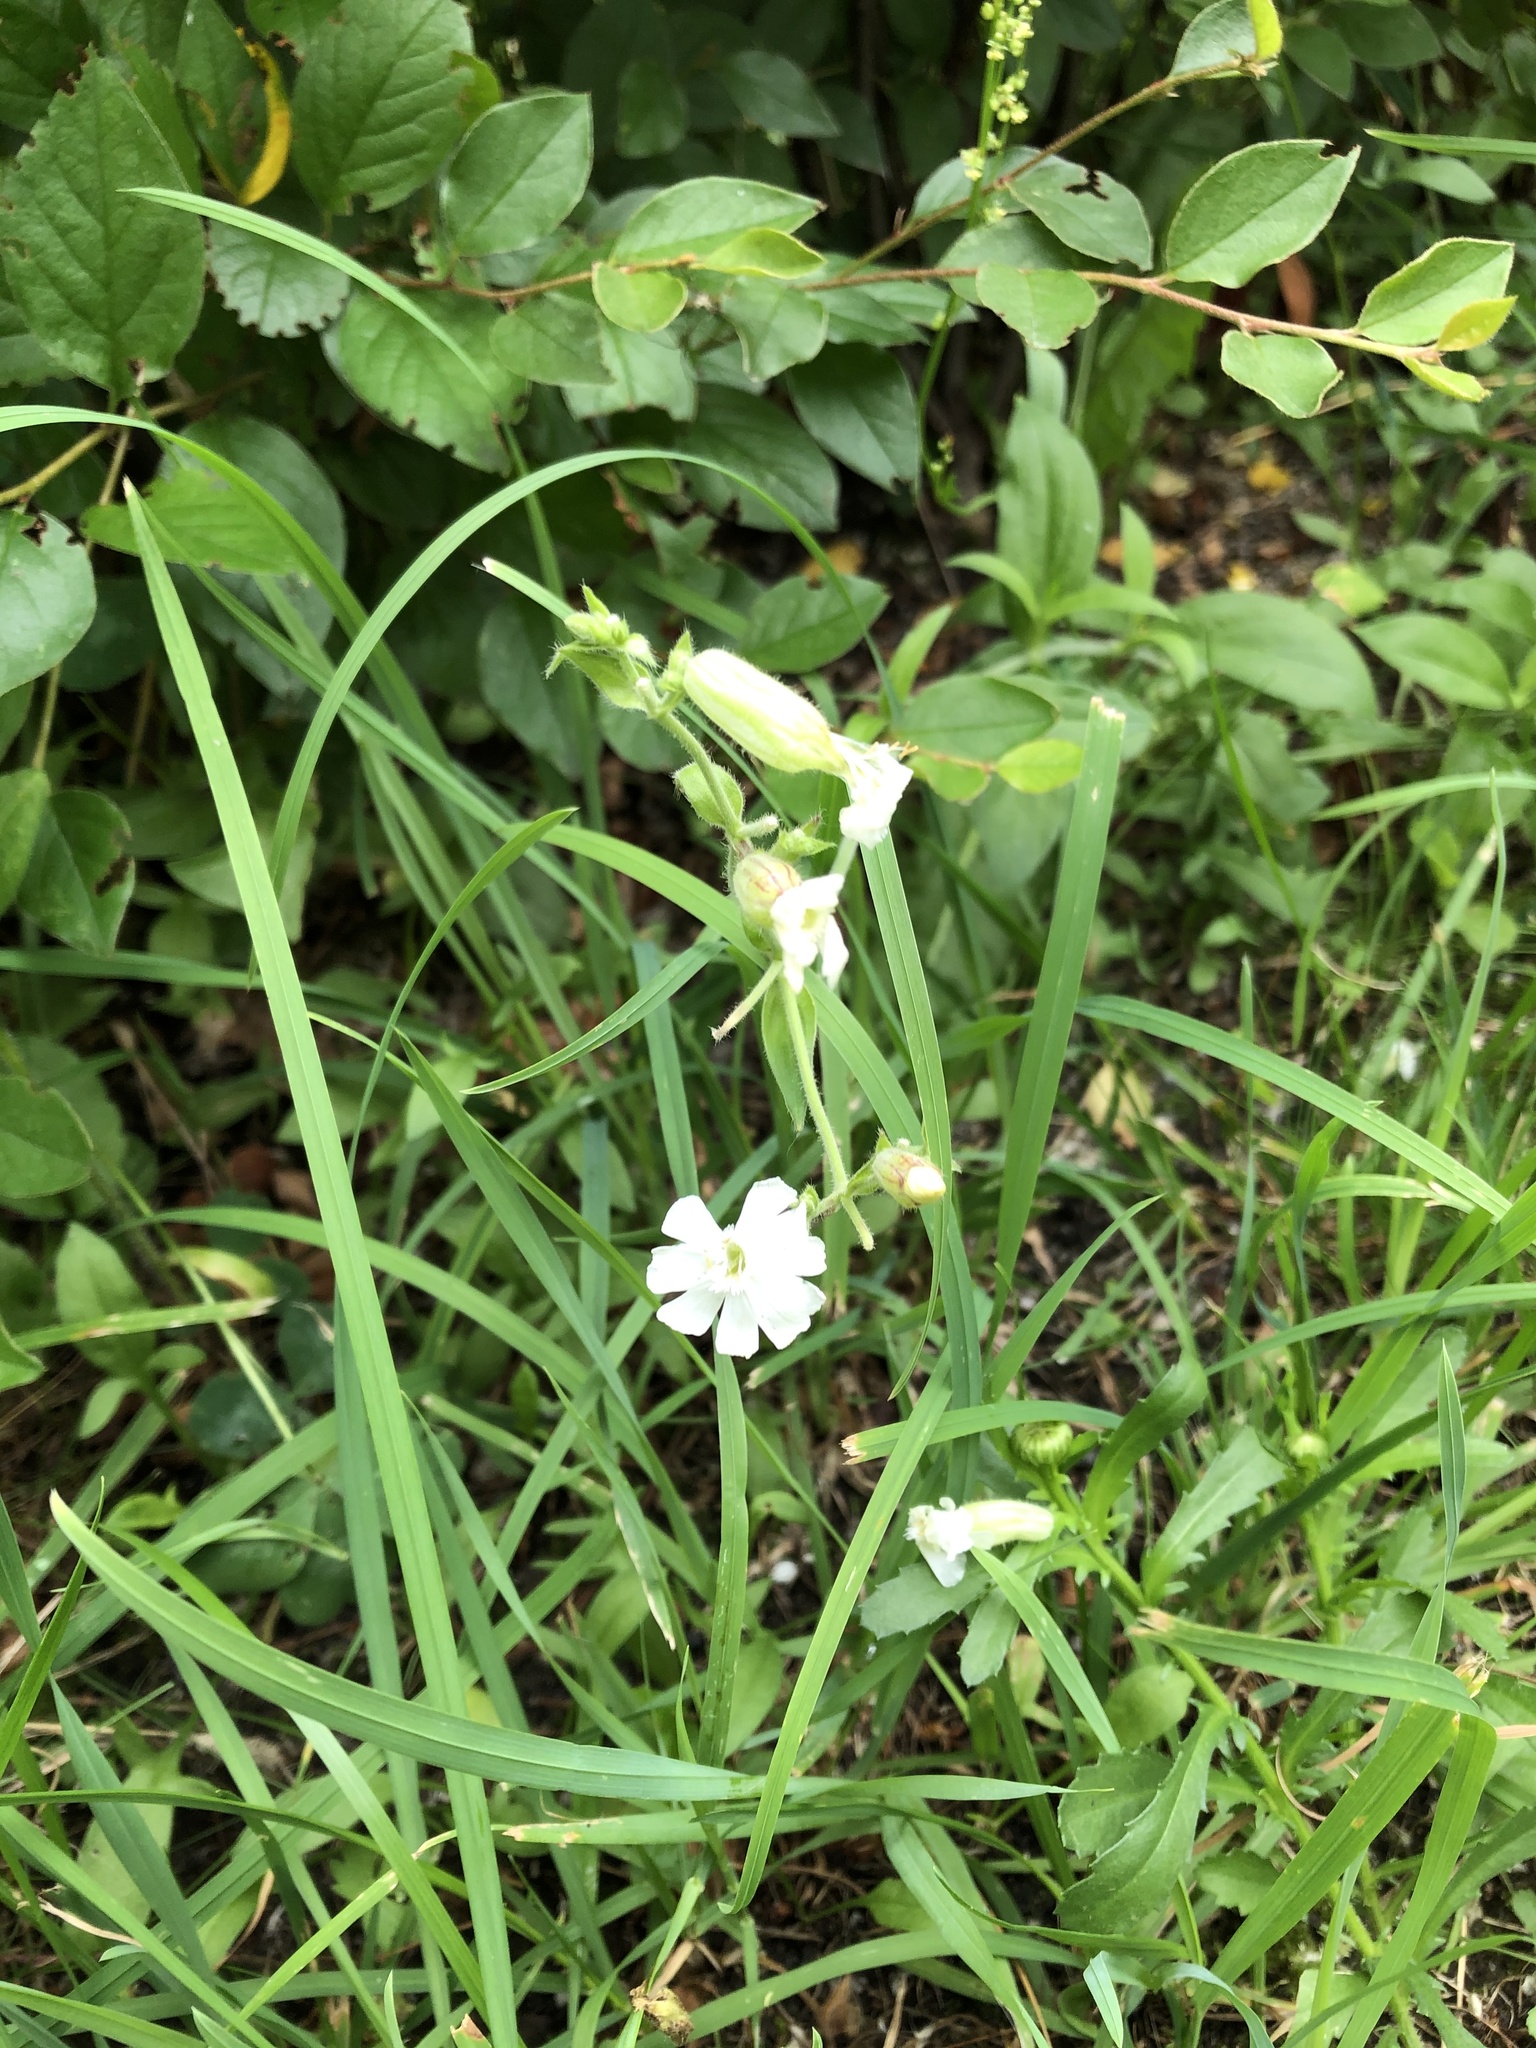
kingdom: Plantae
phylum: Tracheophyta
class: Magnoliopsida
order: Caryophyllales
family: Caryophyllaceae
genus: Silene
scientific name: Silene latifolia
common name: White campion
